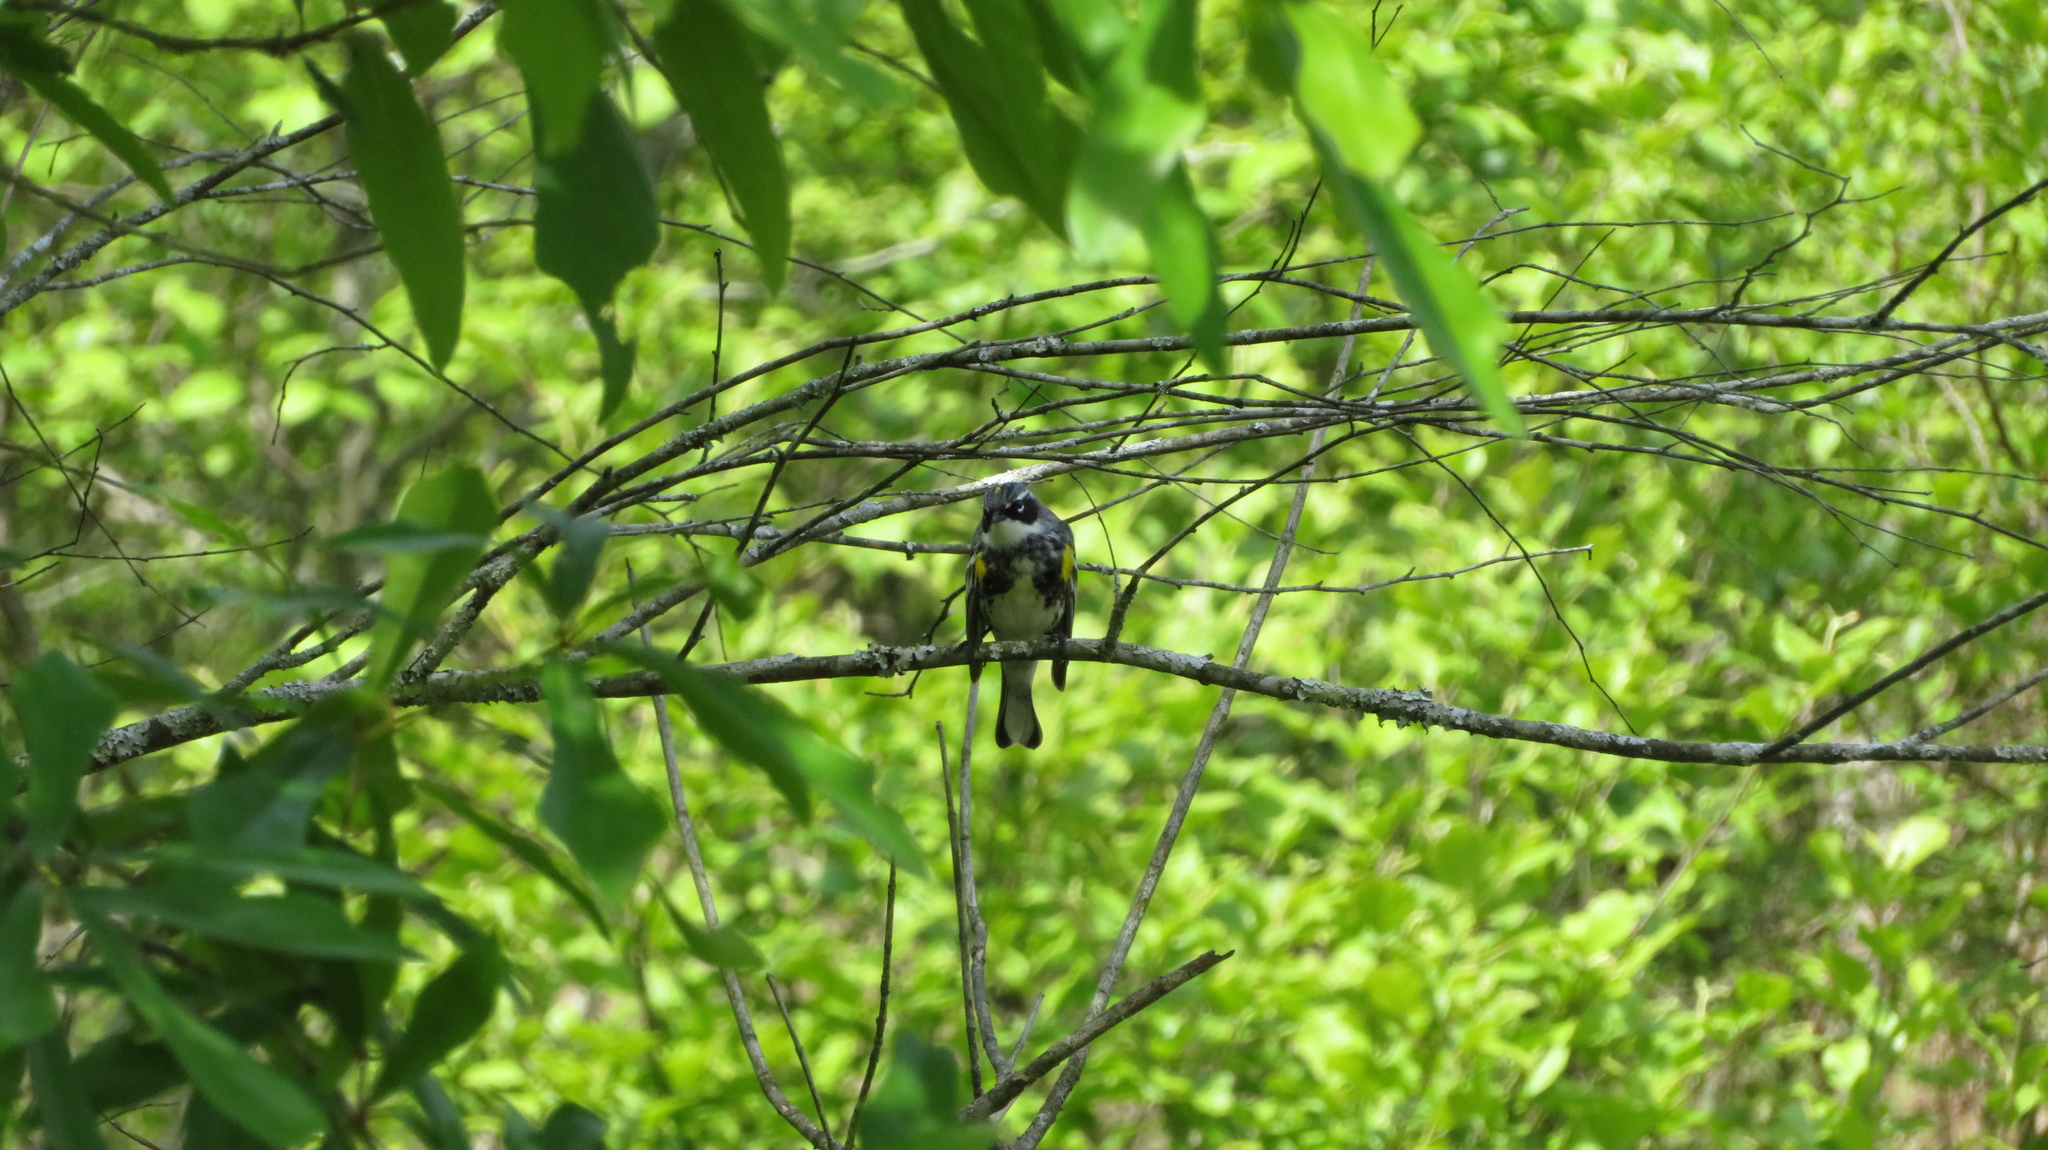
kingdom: Animalia
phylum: Chordata
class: Aves
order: Passeriformes
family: Parulidae
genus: Setophaga
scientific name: Setophaga coronata
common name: Myrtle warbler
